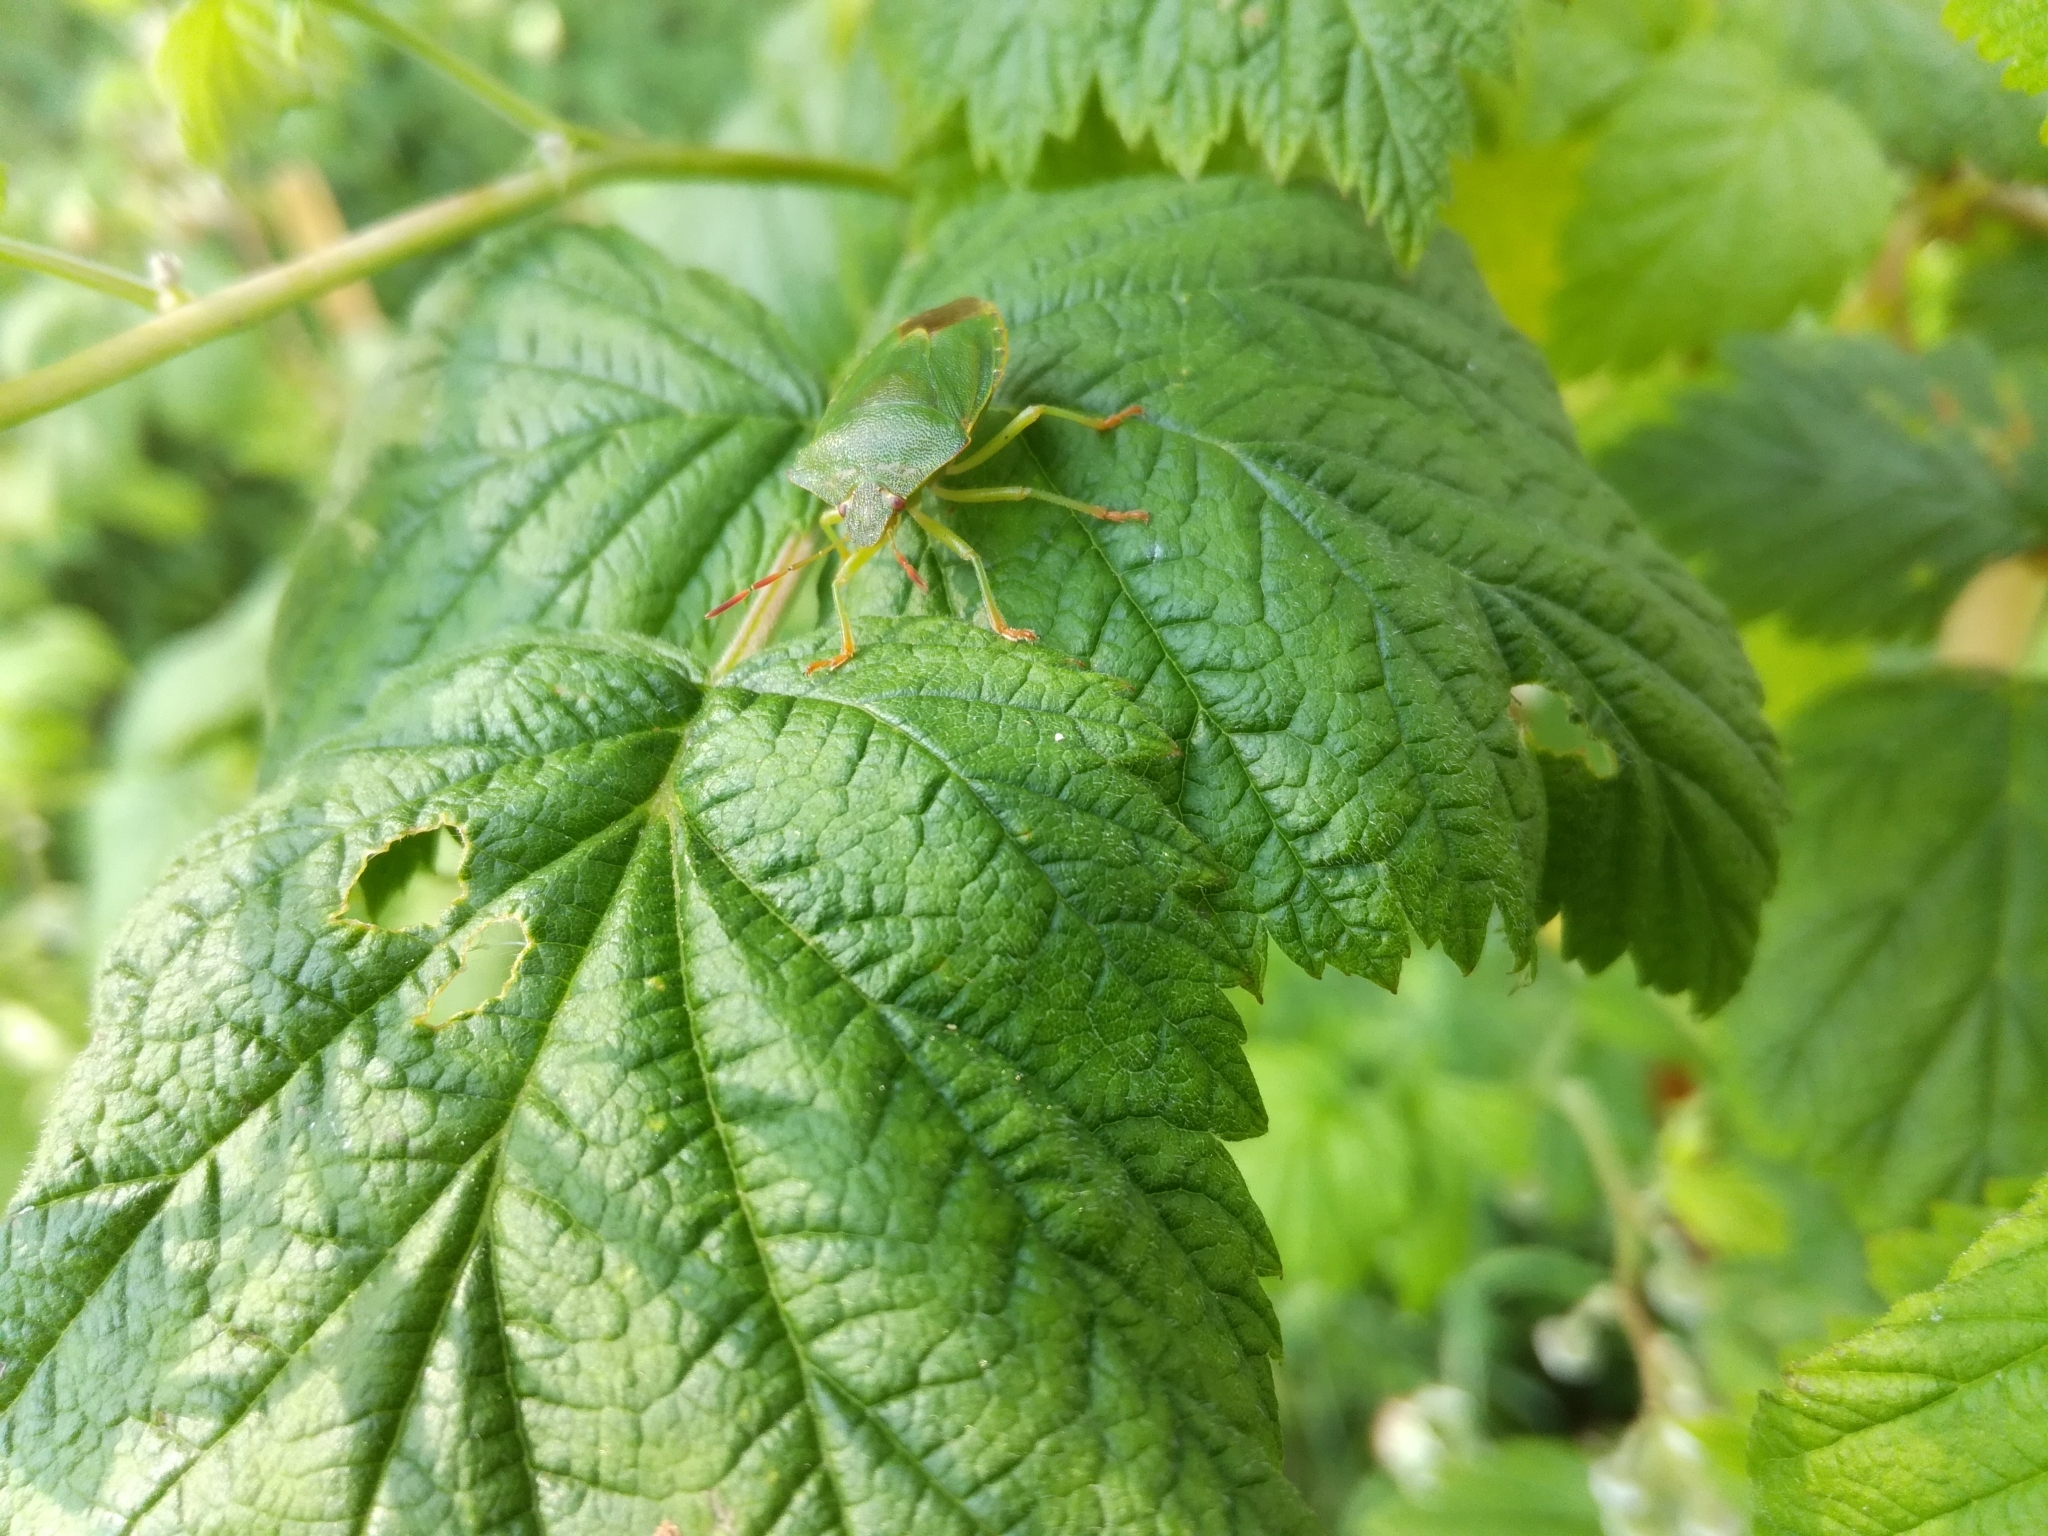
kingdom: Animalia
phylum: Arthropoda
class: Insecta
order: Hemiptera
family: Pentatomidae
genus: Palomena
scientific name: Palomena prasina
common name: Green shieldbug
